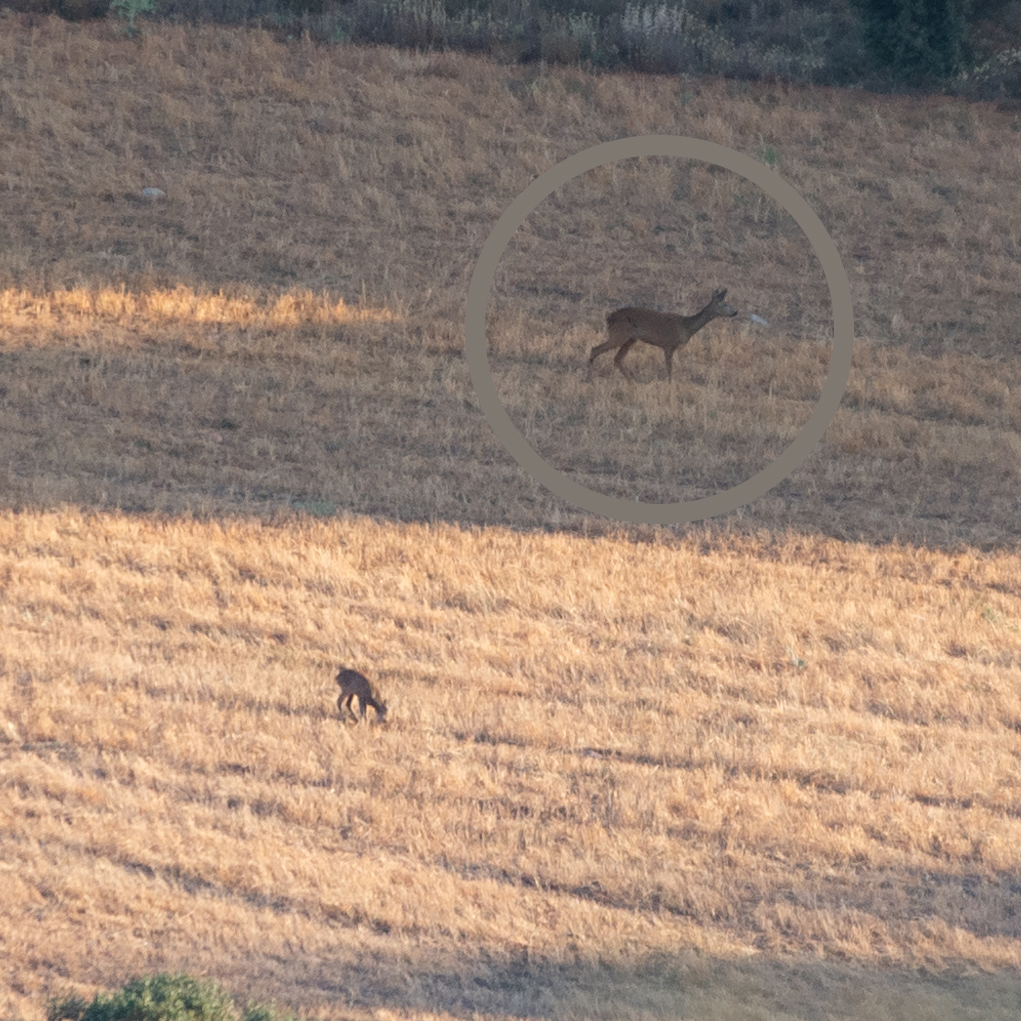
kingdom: Animalia
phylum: Chordata
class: Mammalia
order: Artiodactyla
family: Cervidae
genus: Capreolus
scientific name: Capreolus capreolus
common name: Western roe deer
